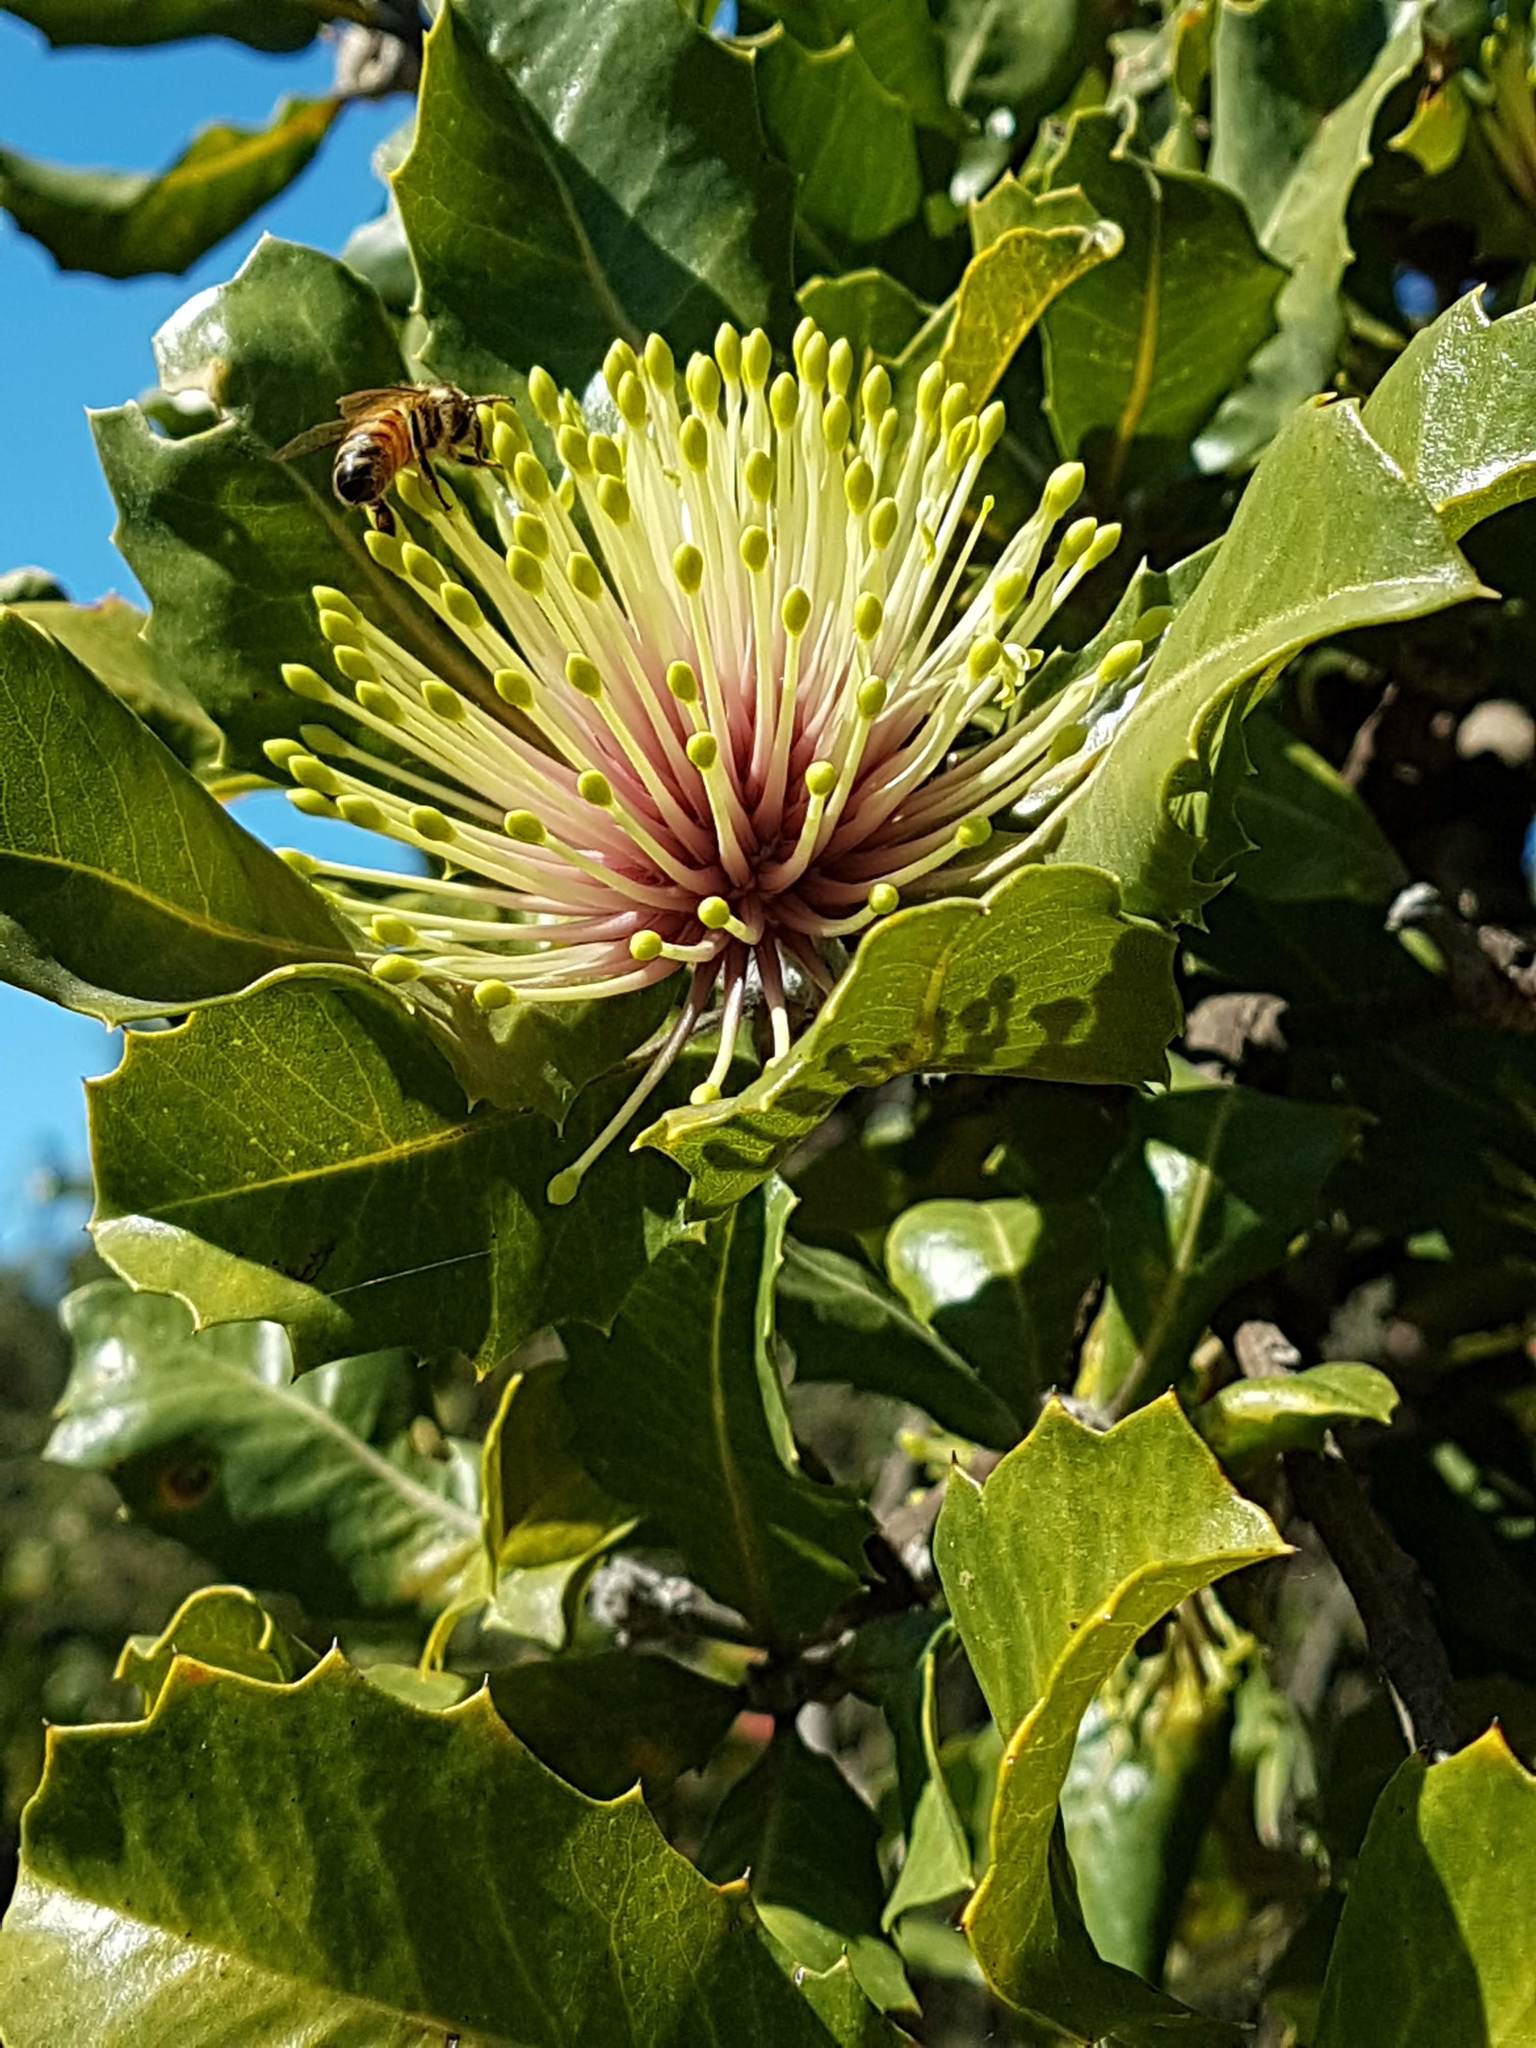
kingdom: Plantae
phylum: Tracheophyta
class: Magnoliopsida
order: Proteales
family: Proteaceae
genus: Banksia
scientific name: Banksia ilicifolia
